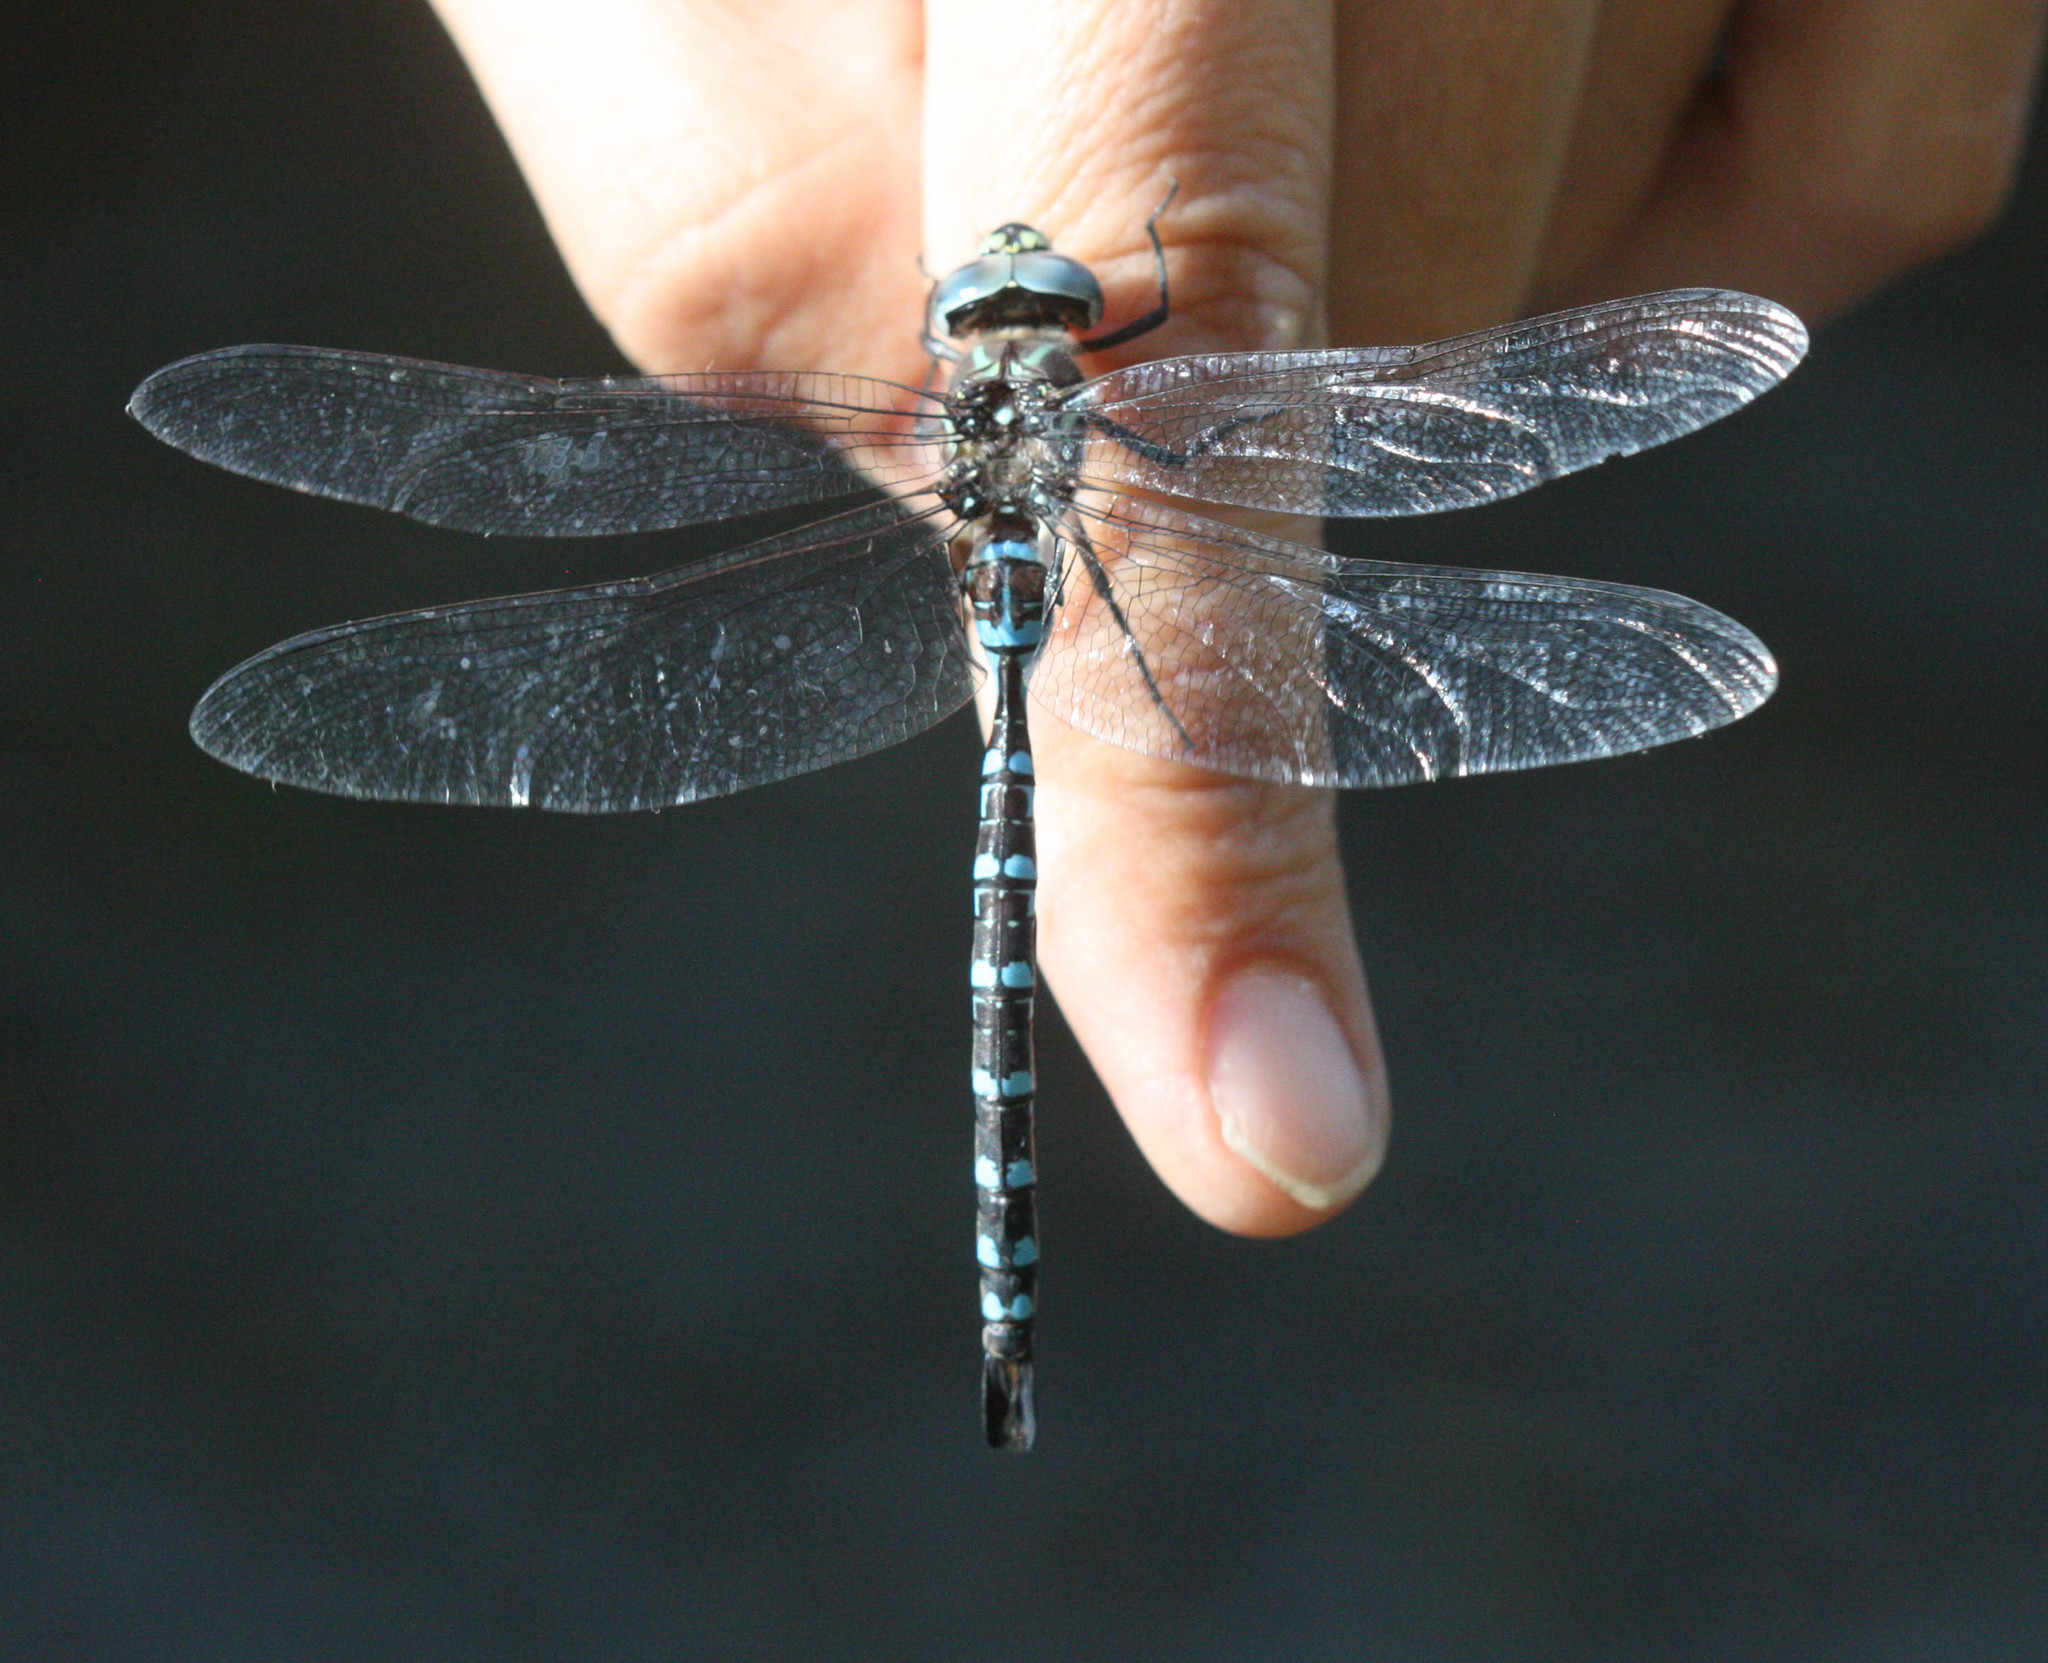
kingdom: Animalia
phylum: Arthropoda
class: Insecta
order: Odonata
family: Aeshnidae
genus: Aeshna
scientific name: Aeshna walkeri
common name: Walker's darner
